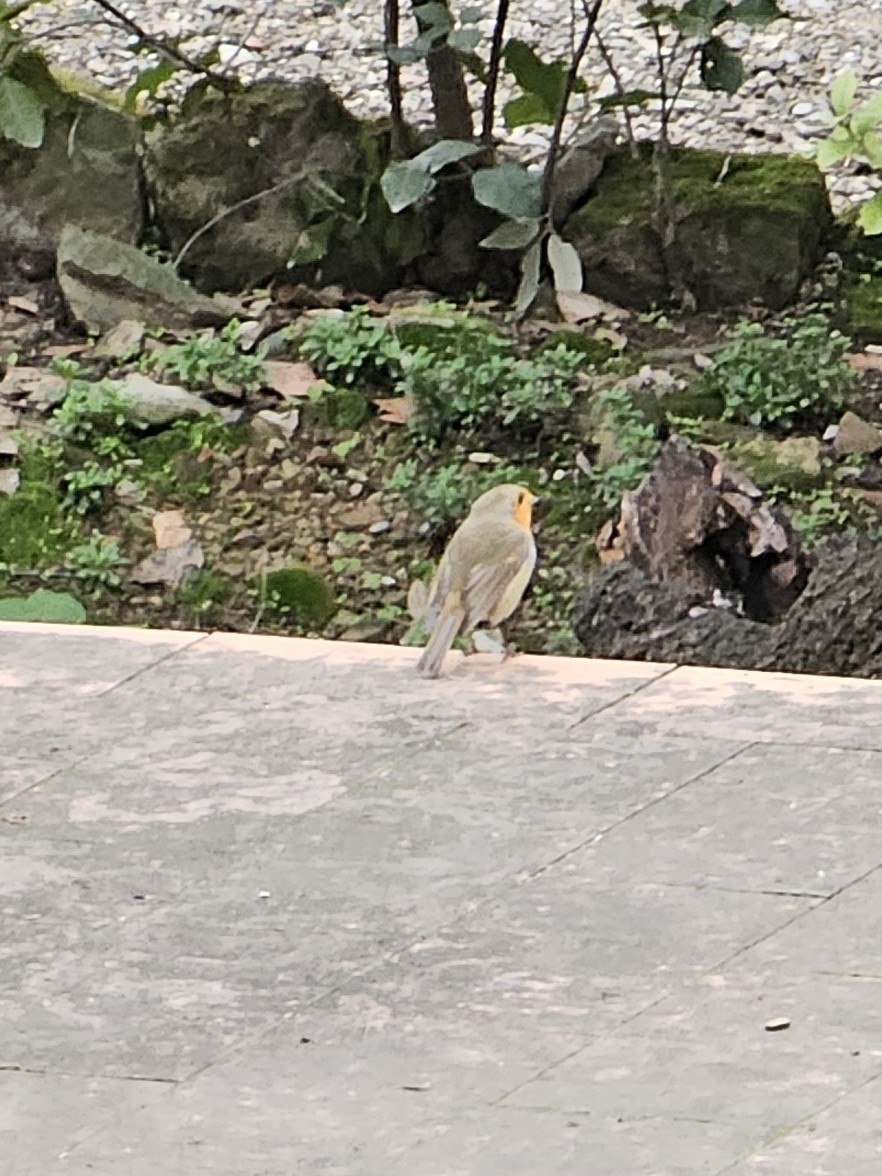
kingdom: Animalia
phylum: Chordata
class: Aves
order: Passeriformes
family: Muscicapidae
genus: Erithacus
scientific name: Erithacus rubecula
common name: European robin
